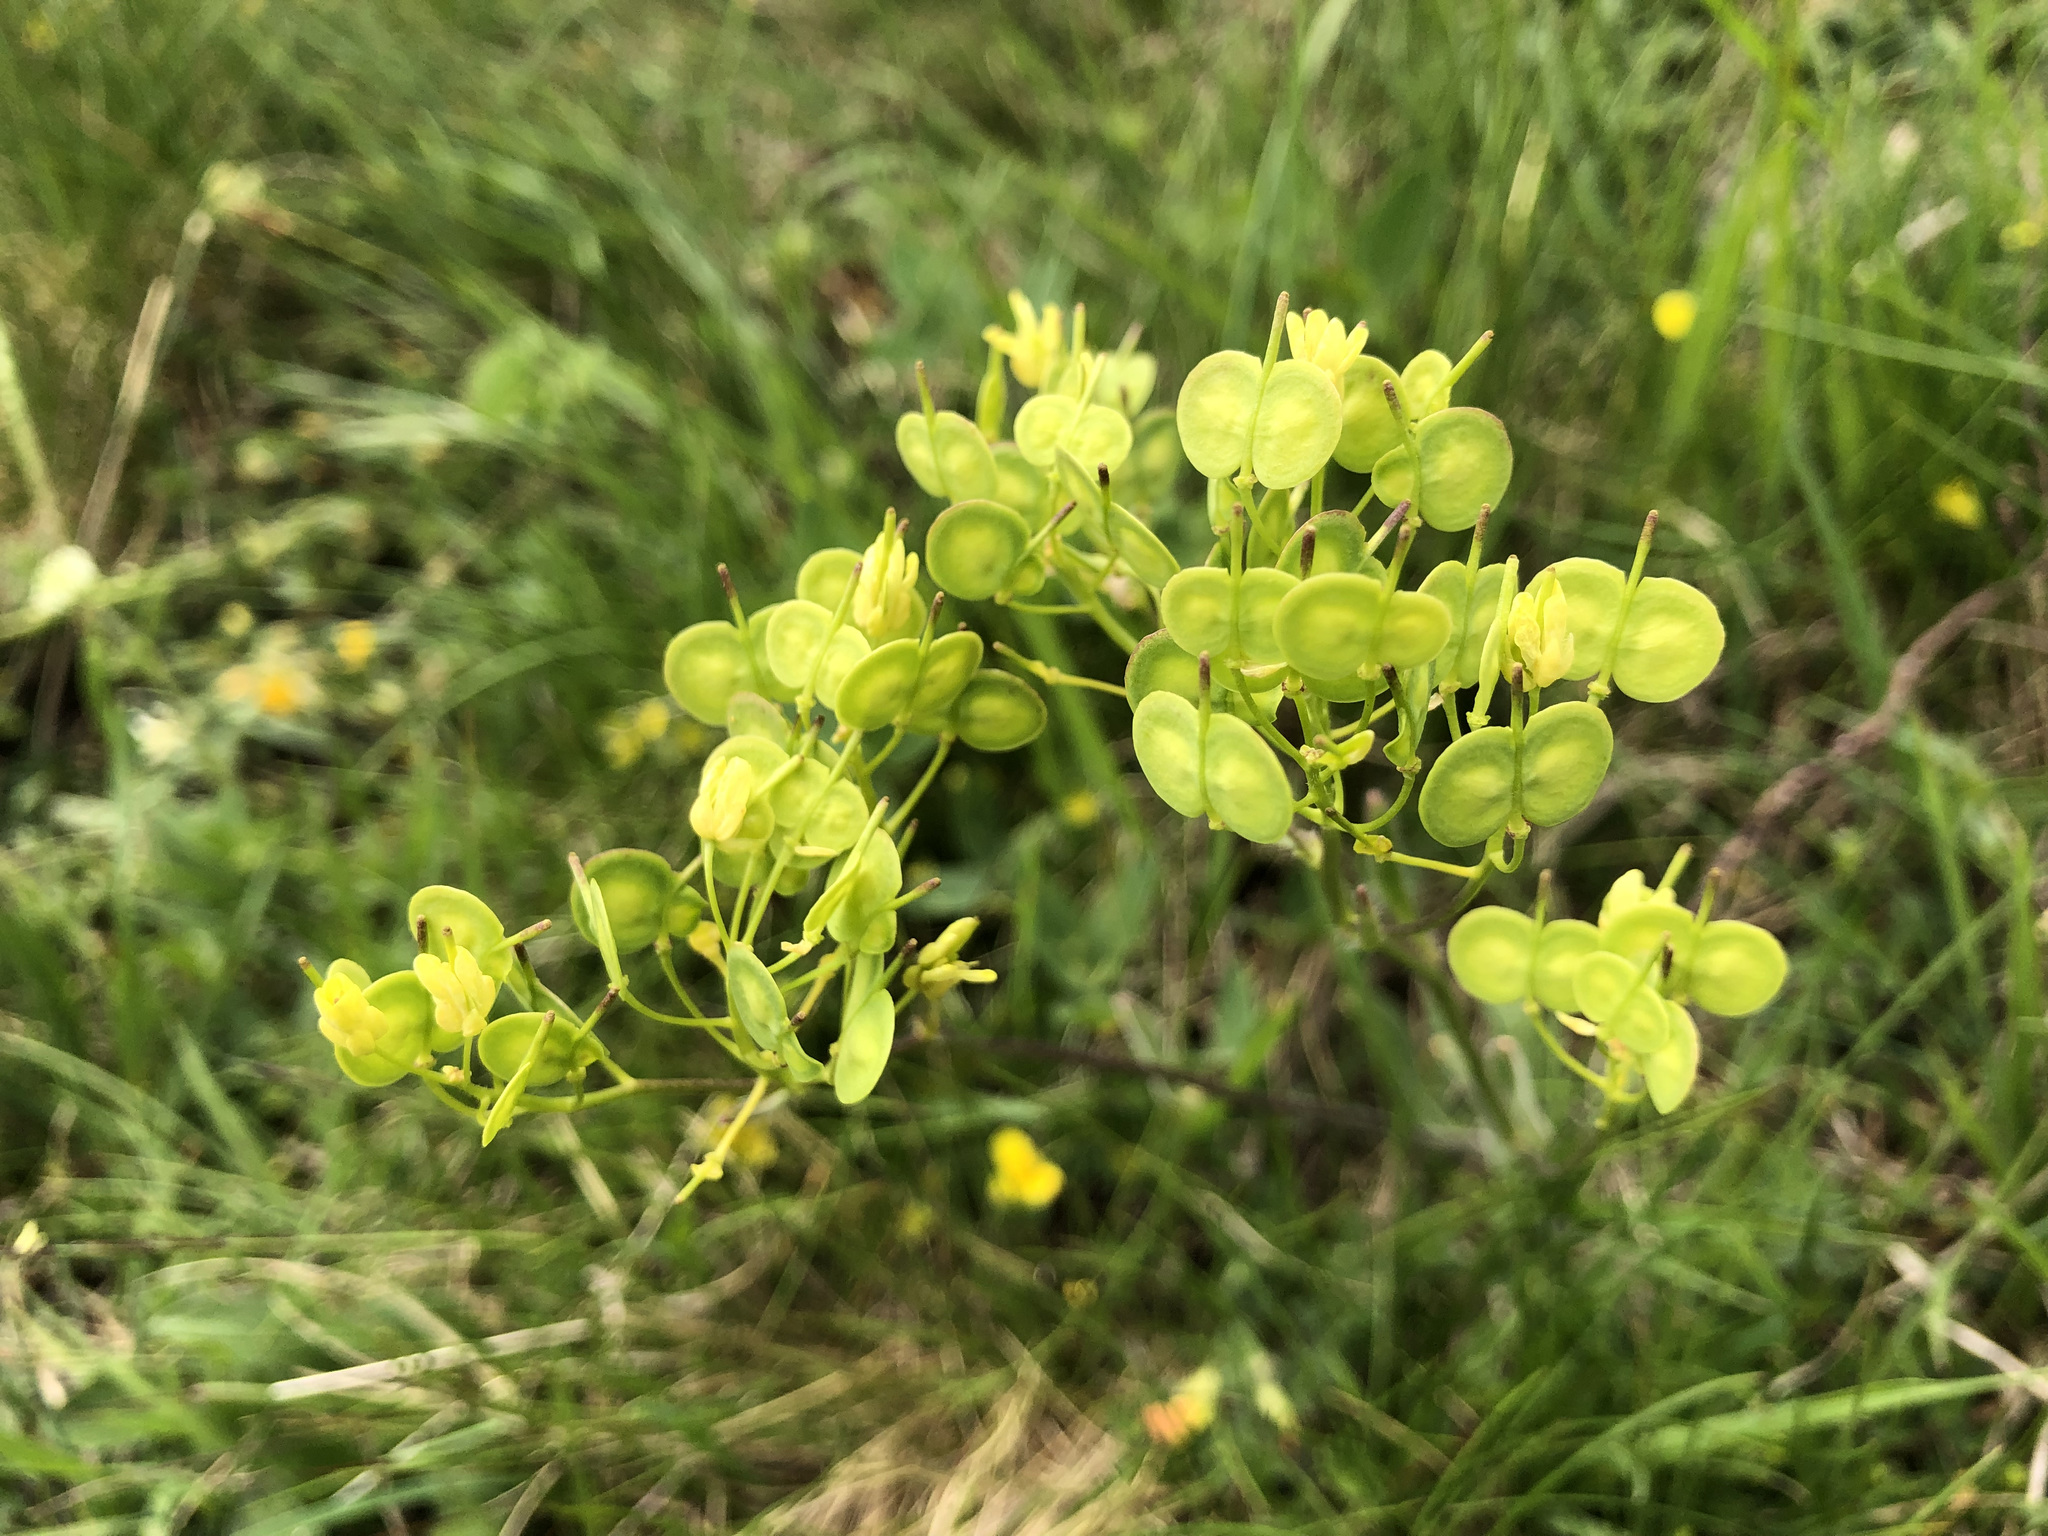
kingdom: Plantae
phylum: Tracheophyta
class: Magnoliopsida
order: Brassicales
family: Brassicaceae
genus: Biscutella
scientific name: Biscutella laevigata
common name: Buckler mustard
